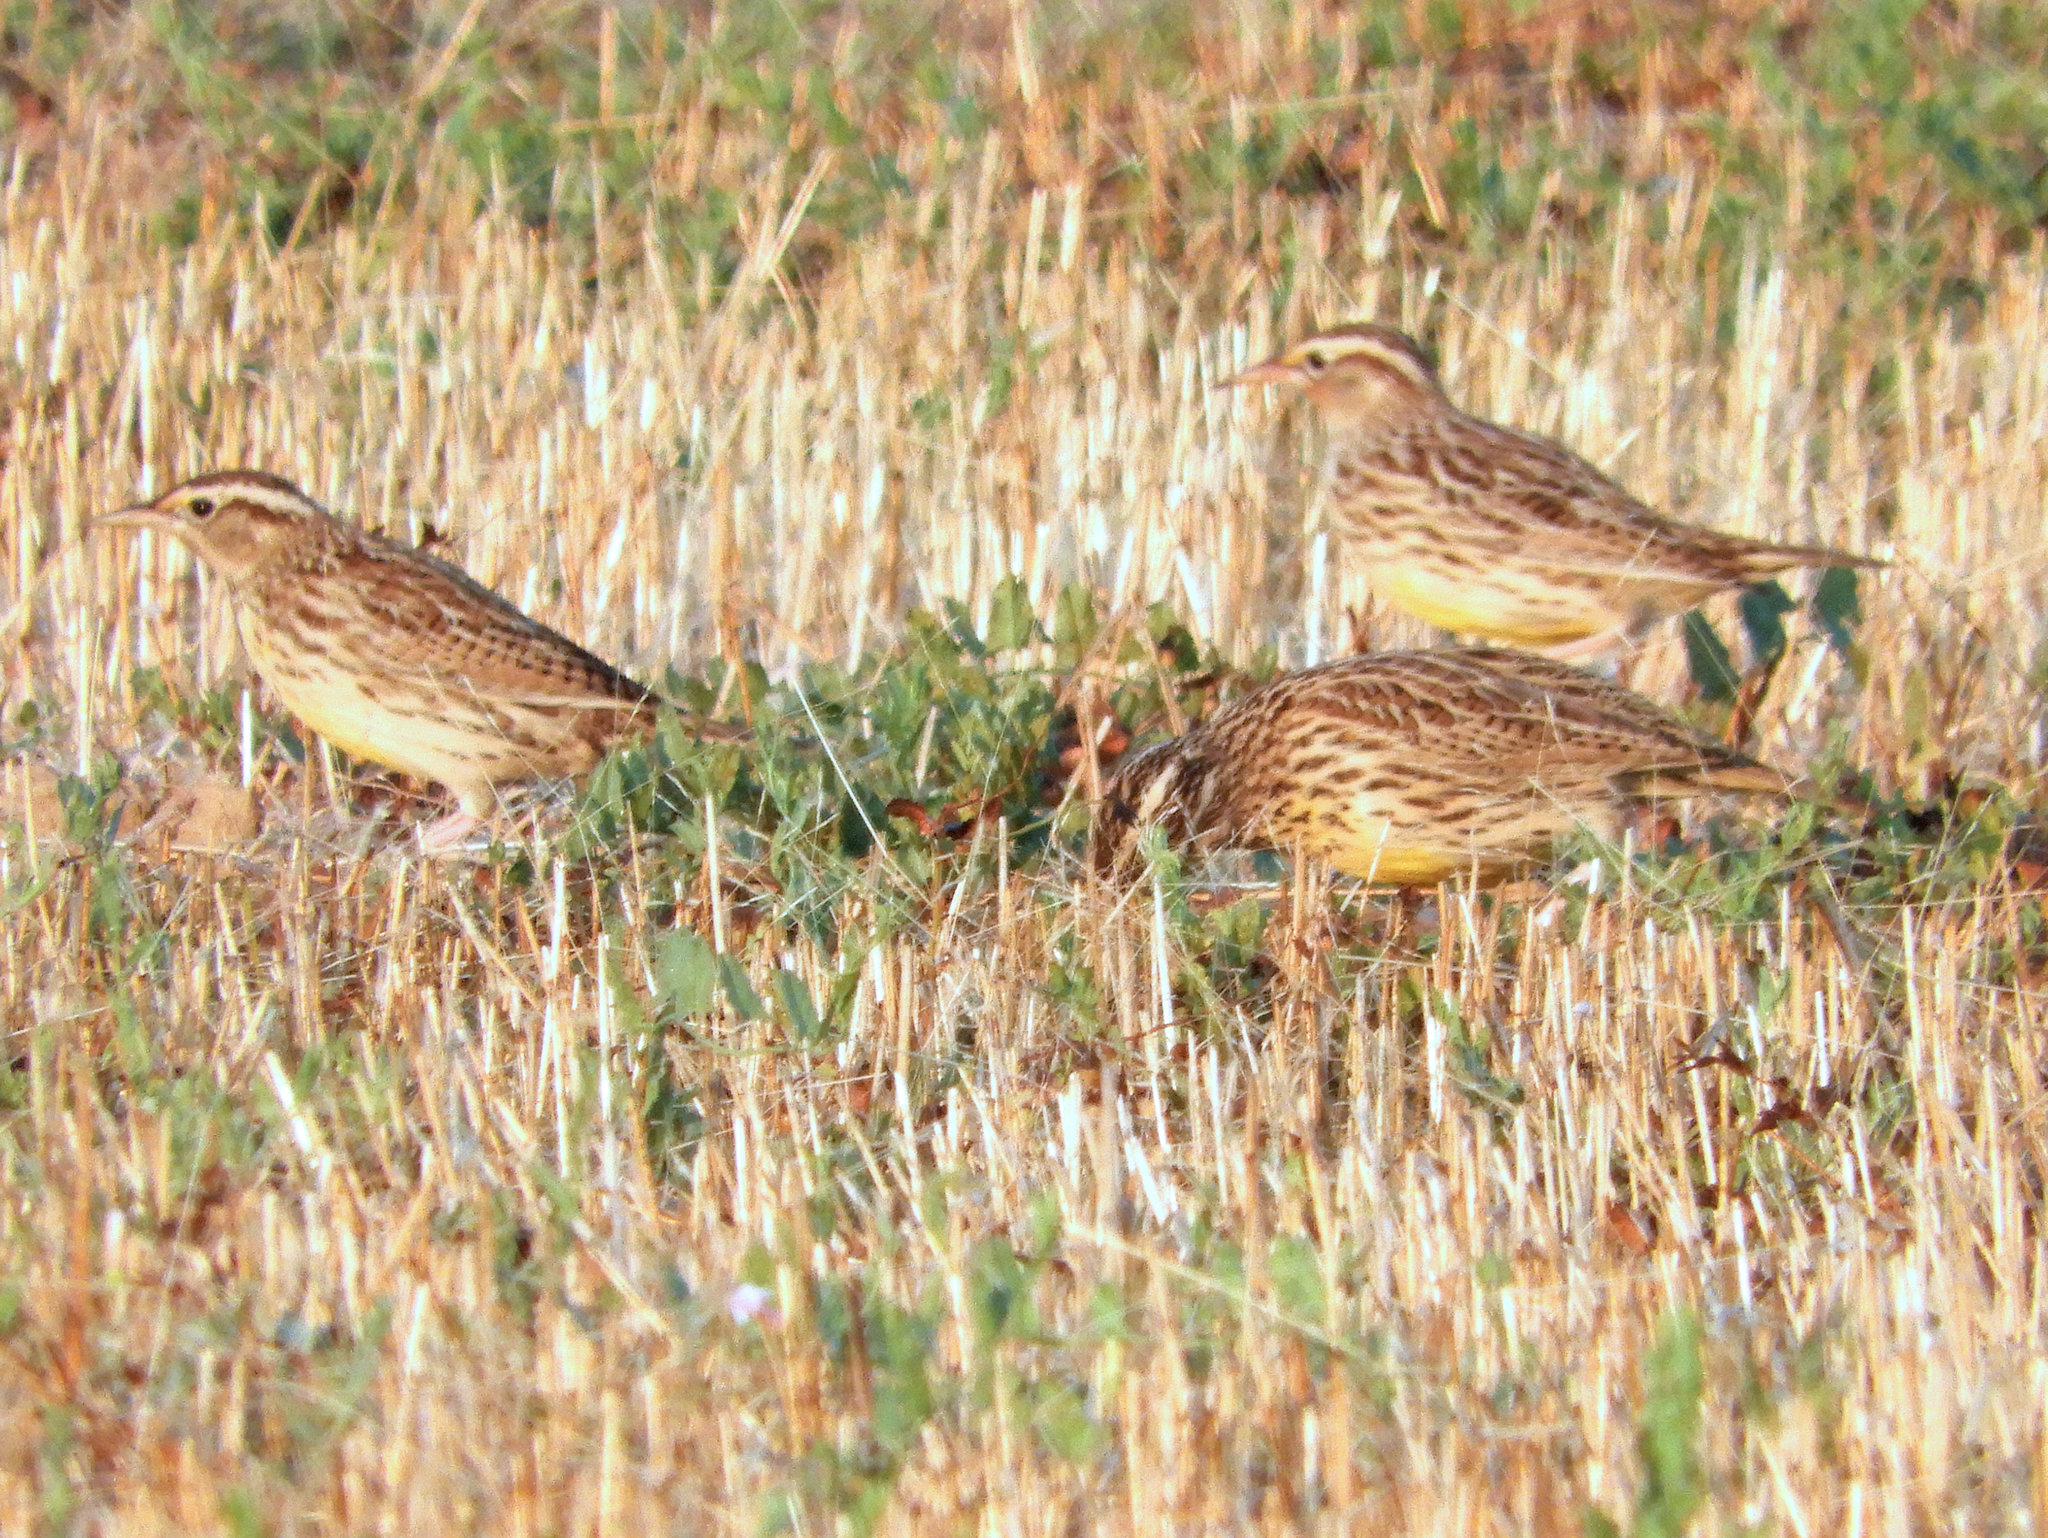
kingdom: Animalia
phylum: Chordata
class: Aves
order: Passeriformes
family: Icteridae
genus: Sturnella
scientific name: Sturnella neglecta
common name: Western meadowlark
